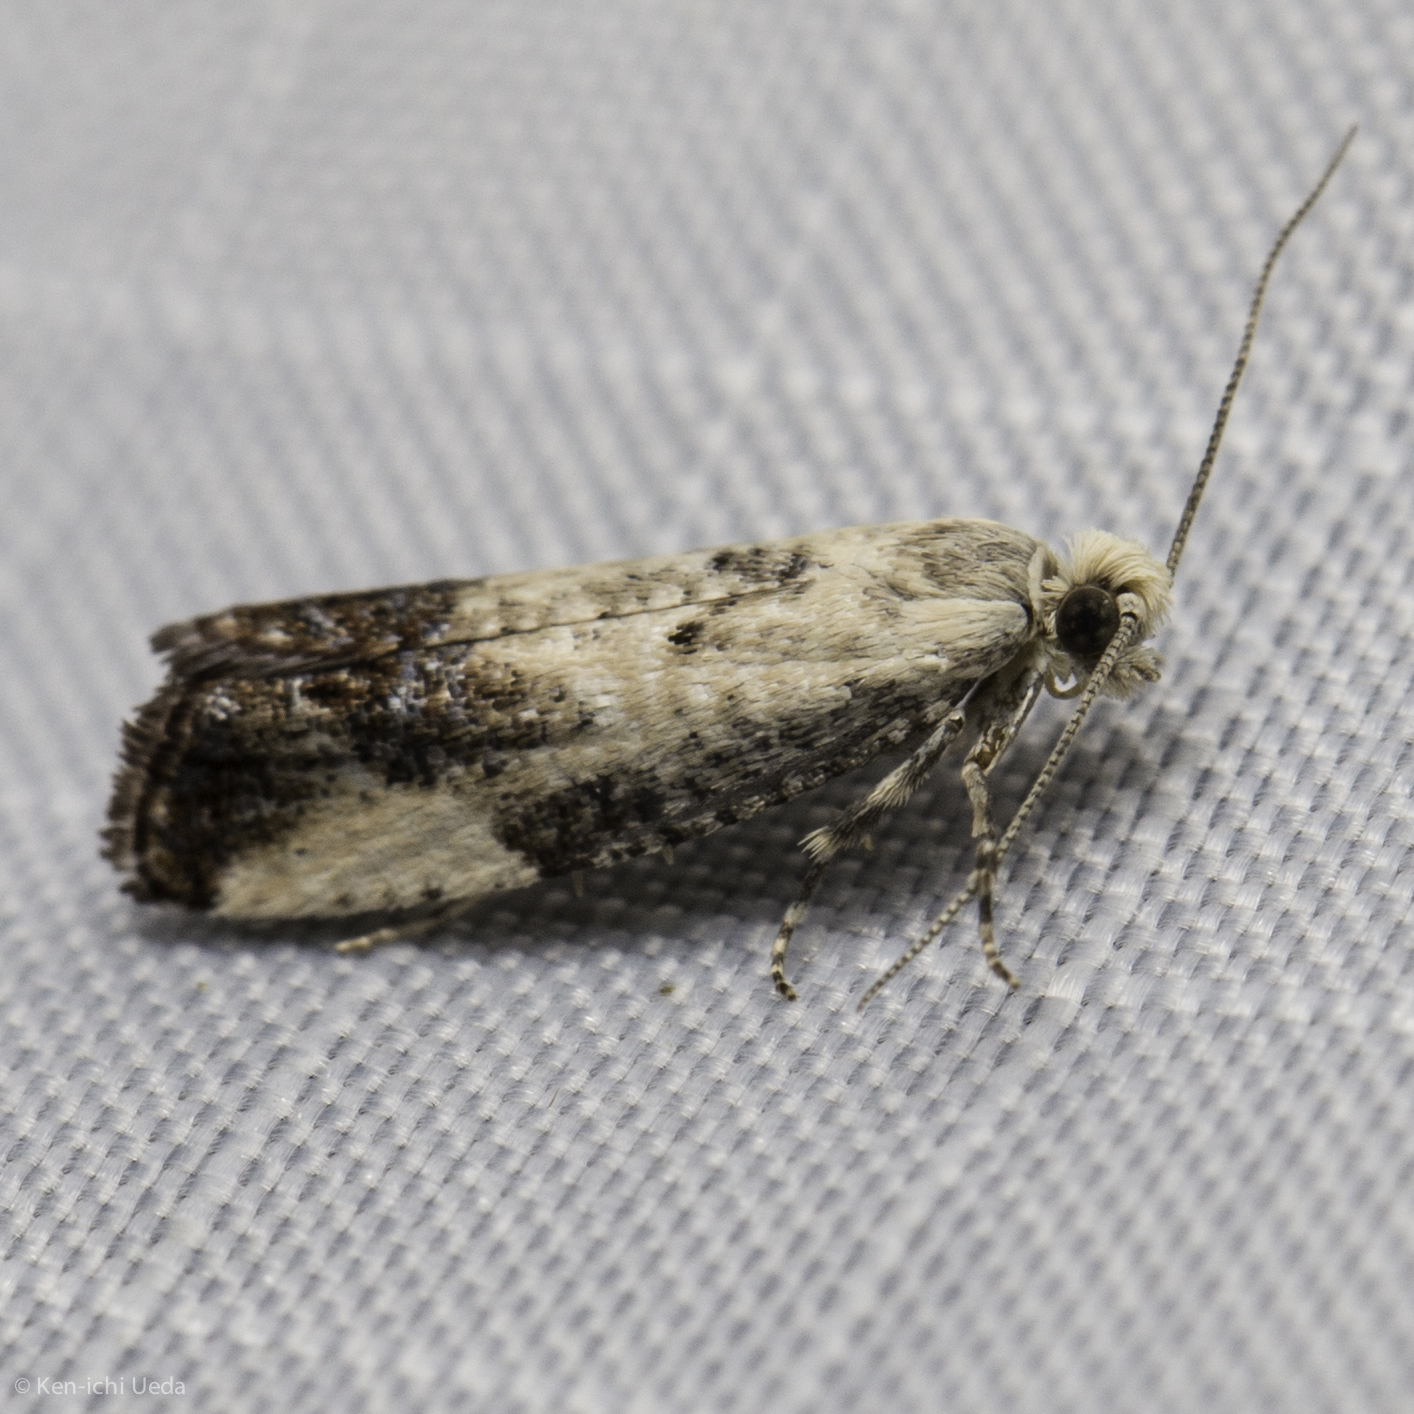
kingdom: Animalia
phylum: Arthropoda
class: Insecta
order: Lepidoptera
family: Tortricidae
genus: Epinotia
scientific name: Epinotia purpuriciliana
